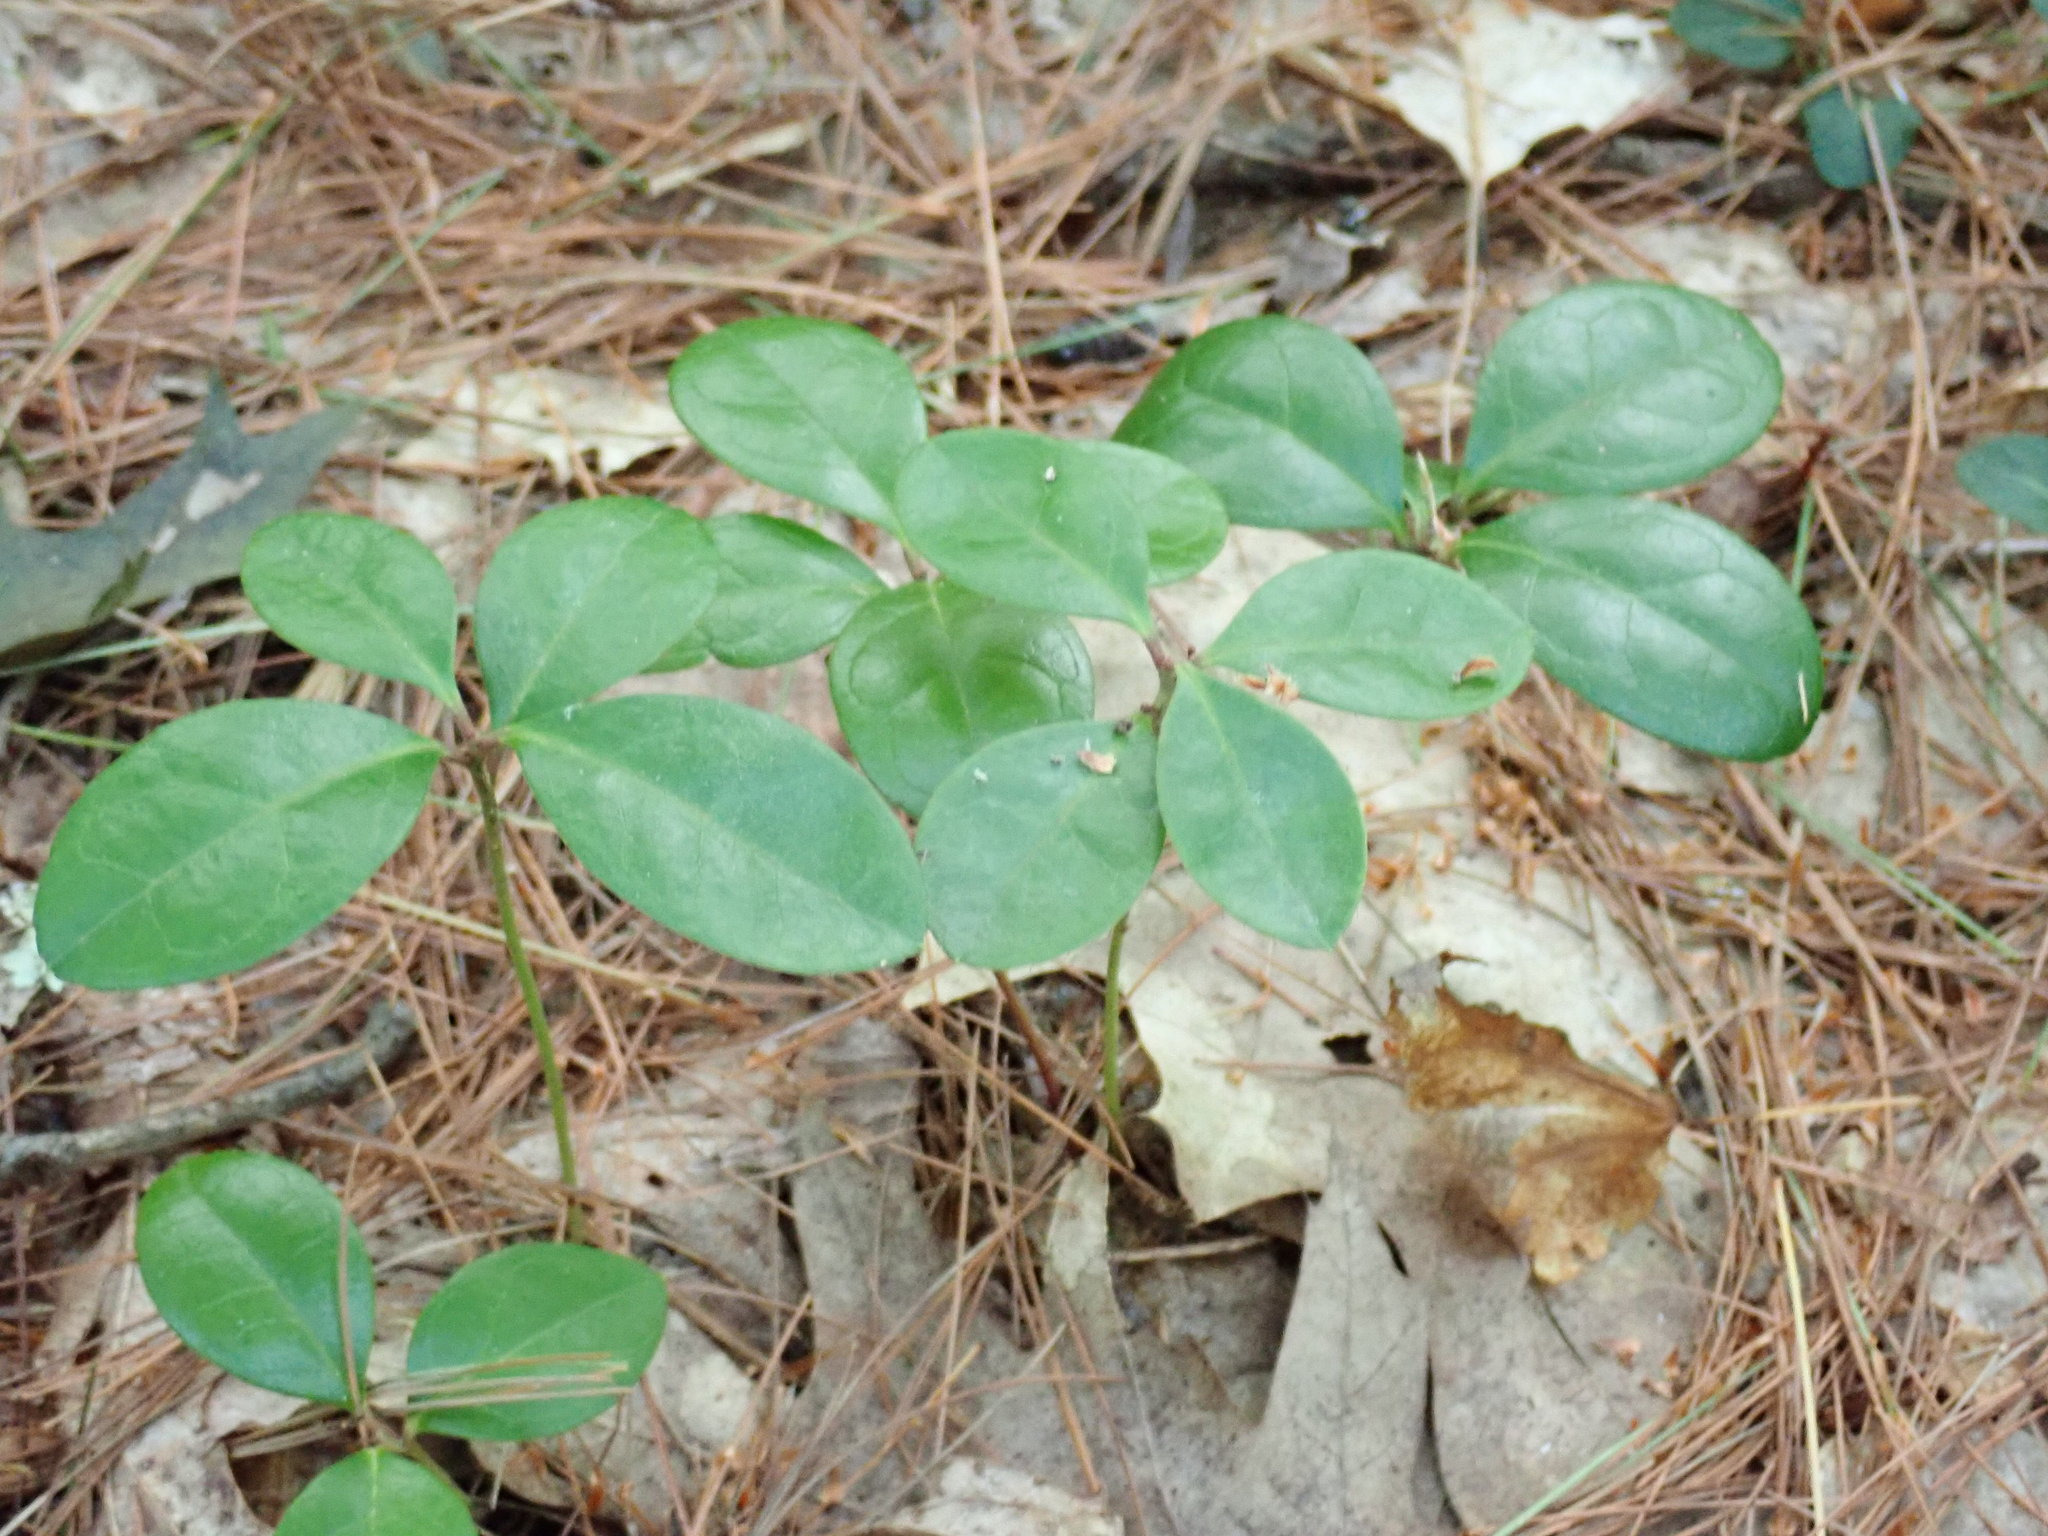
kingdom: Plantae
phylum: Tracheophyta
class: Magnoliopsida
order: Ericales
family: Ericaceae
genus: Gaultheria
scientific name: Gaultheria procumbens
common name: Checkerberry
